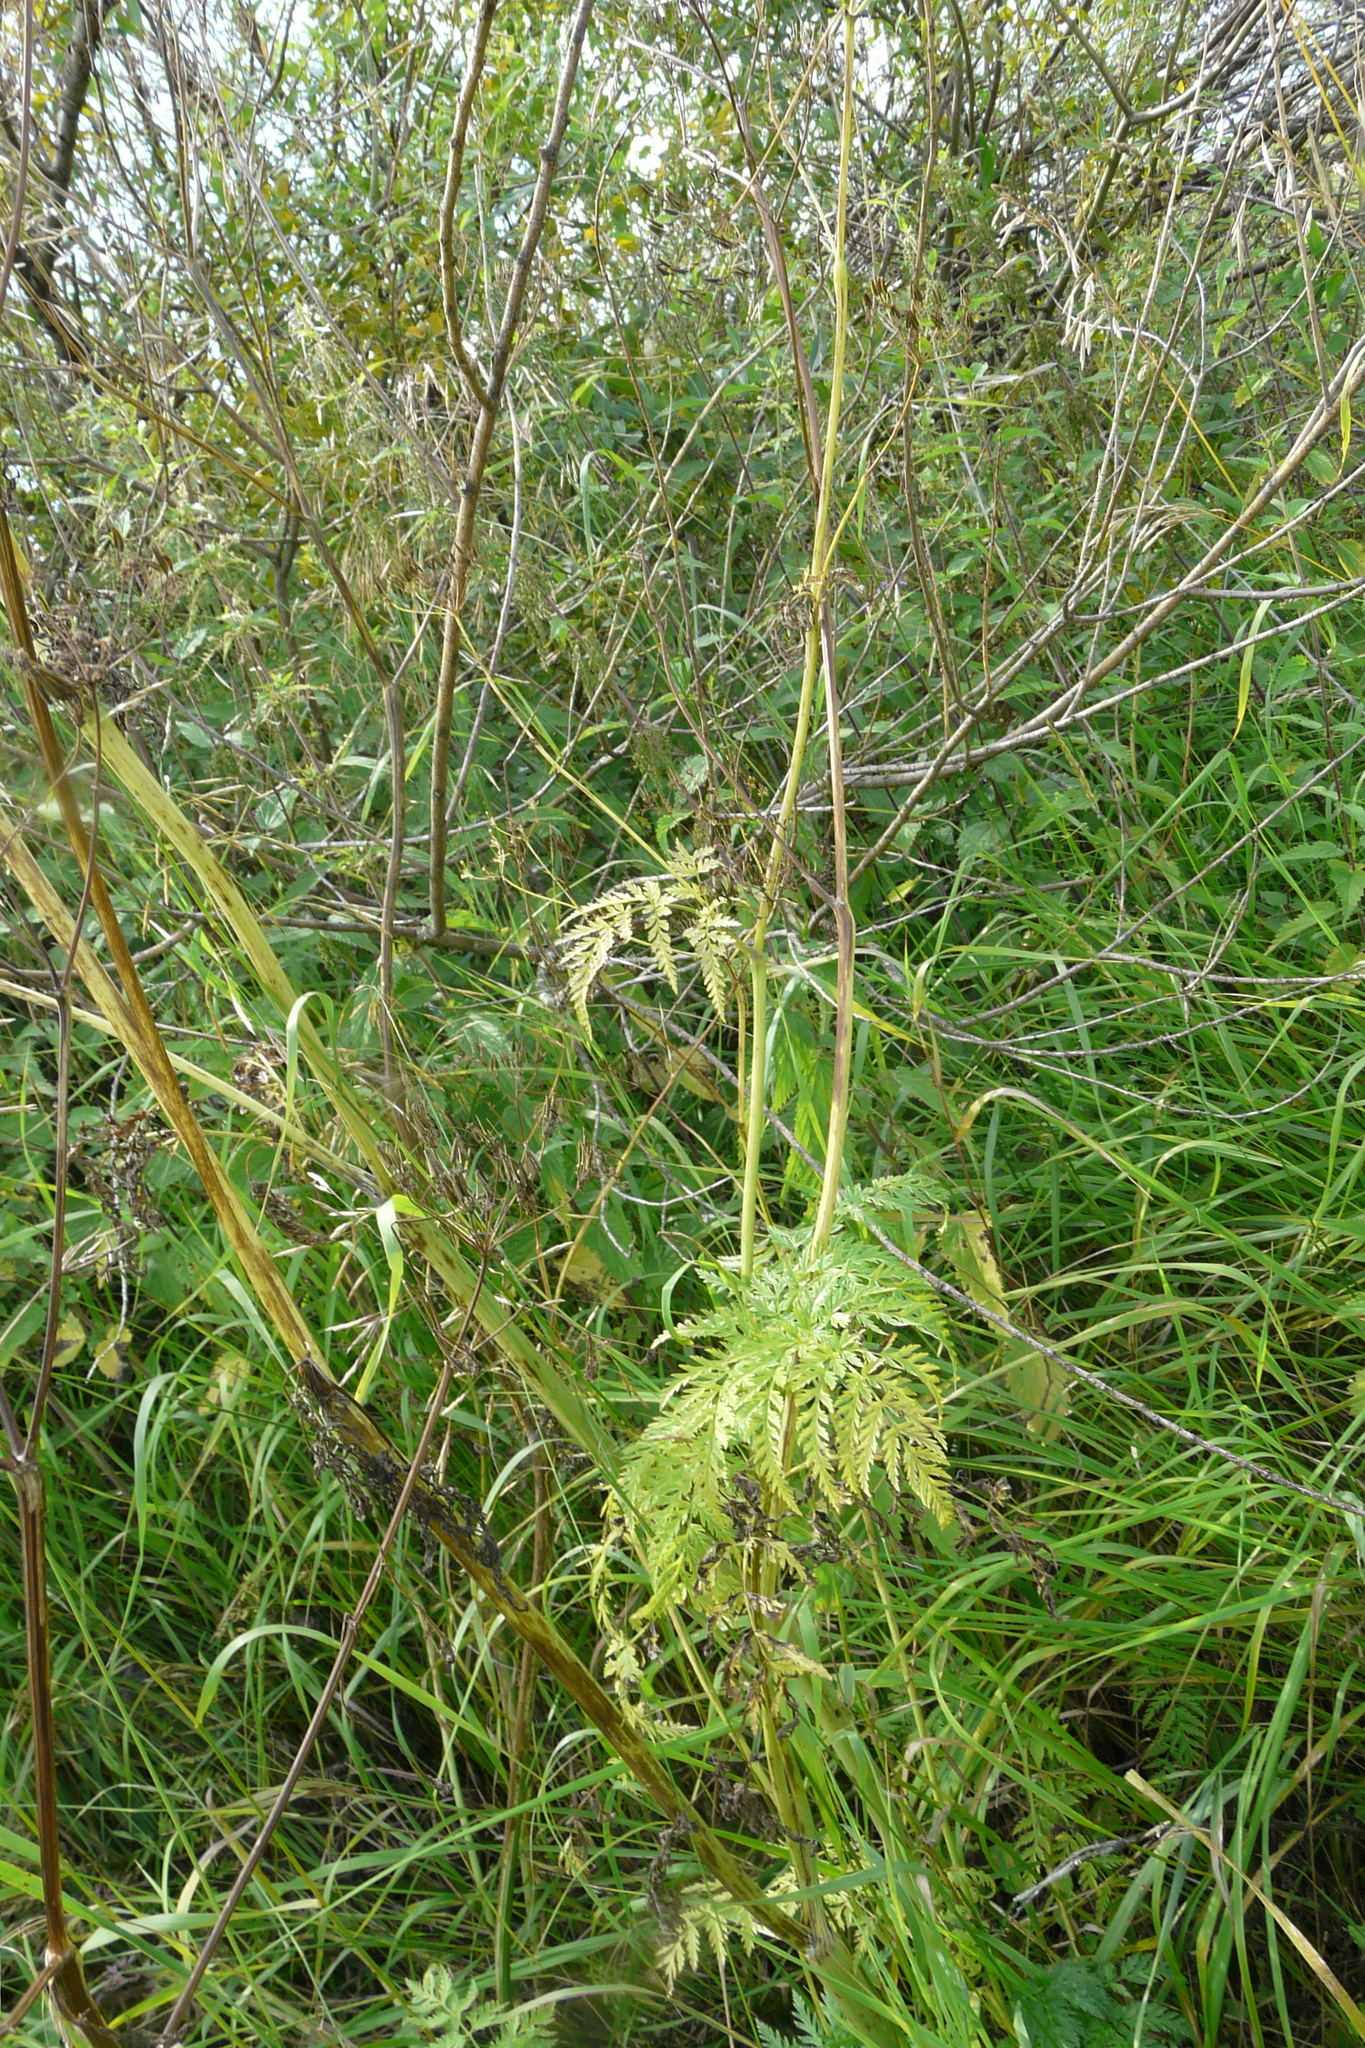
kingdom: Plantae
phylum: Tracheophyta
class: Magnoliopsida
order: Apiales
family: Apiaceae
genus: Anthriscus
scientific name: Anthriscus sylvestris
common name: Cow parsley
